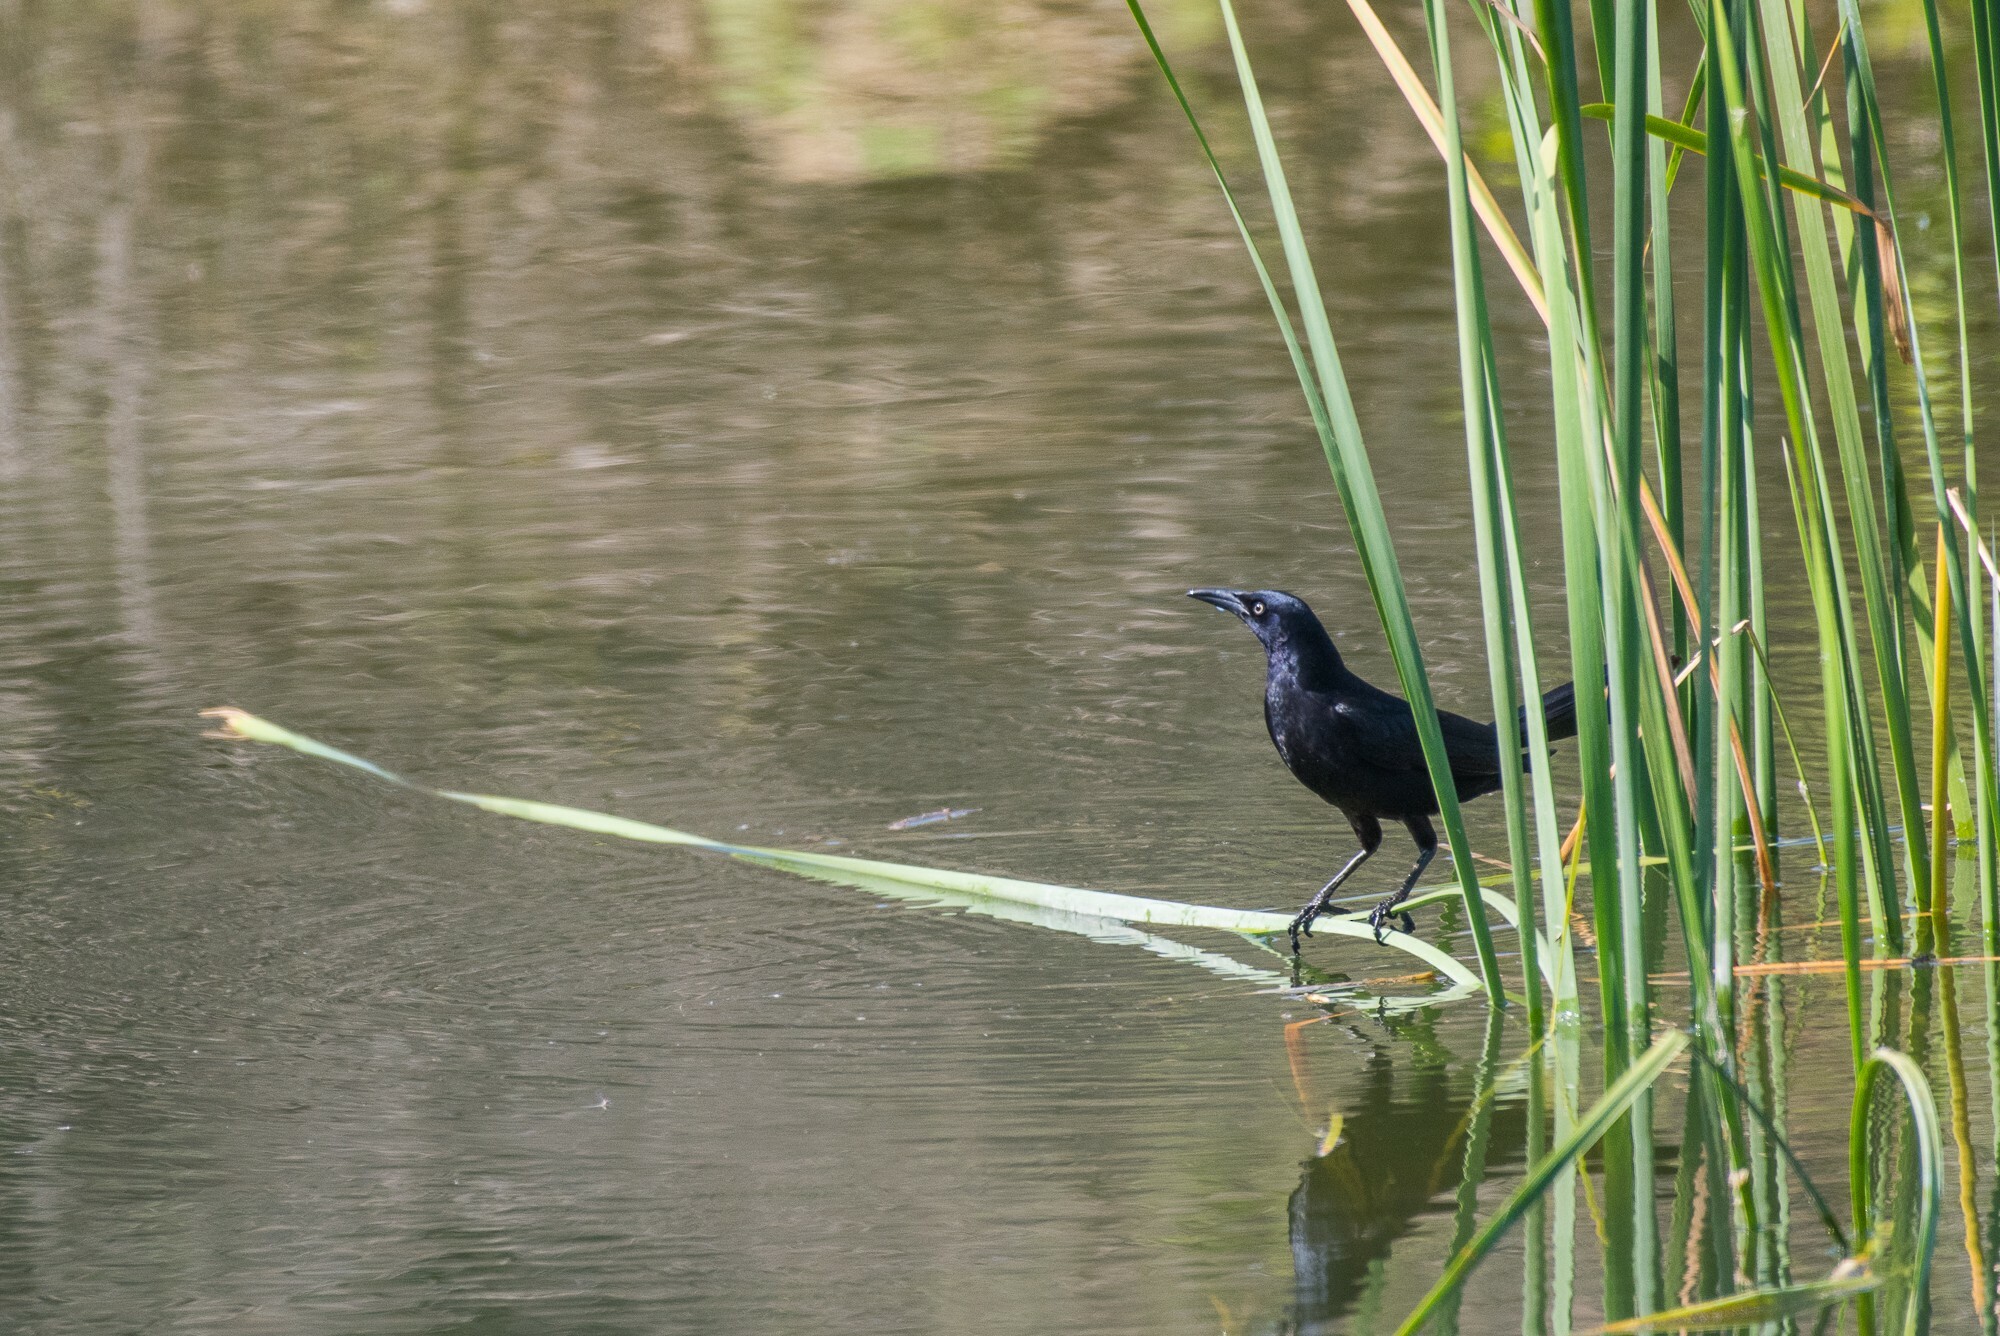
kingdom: Animalia
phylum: Chordata
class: Aves
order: Passeriformes
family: Icteridae
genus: Quiscalus
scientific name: Quiscalus mexicanus
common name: Great-tailed grackle
